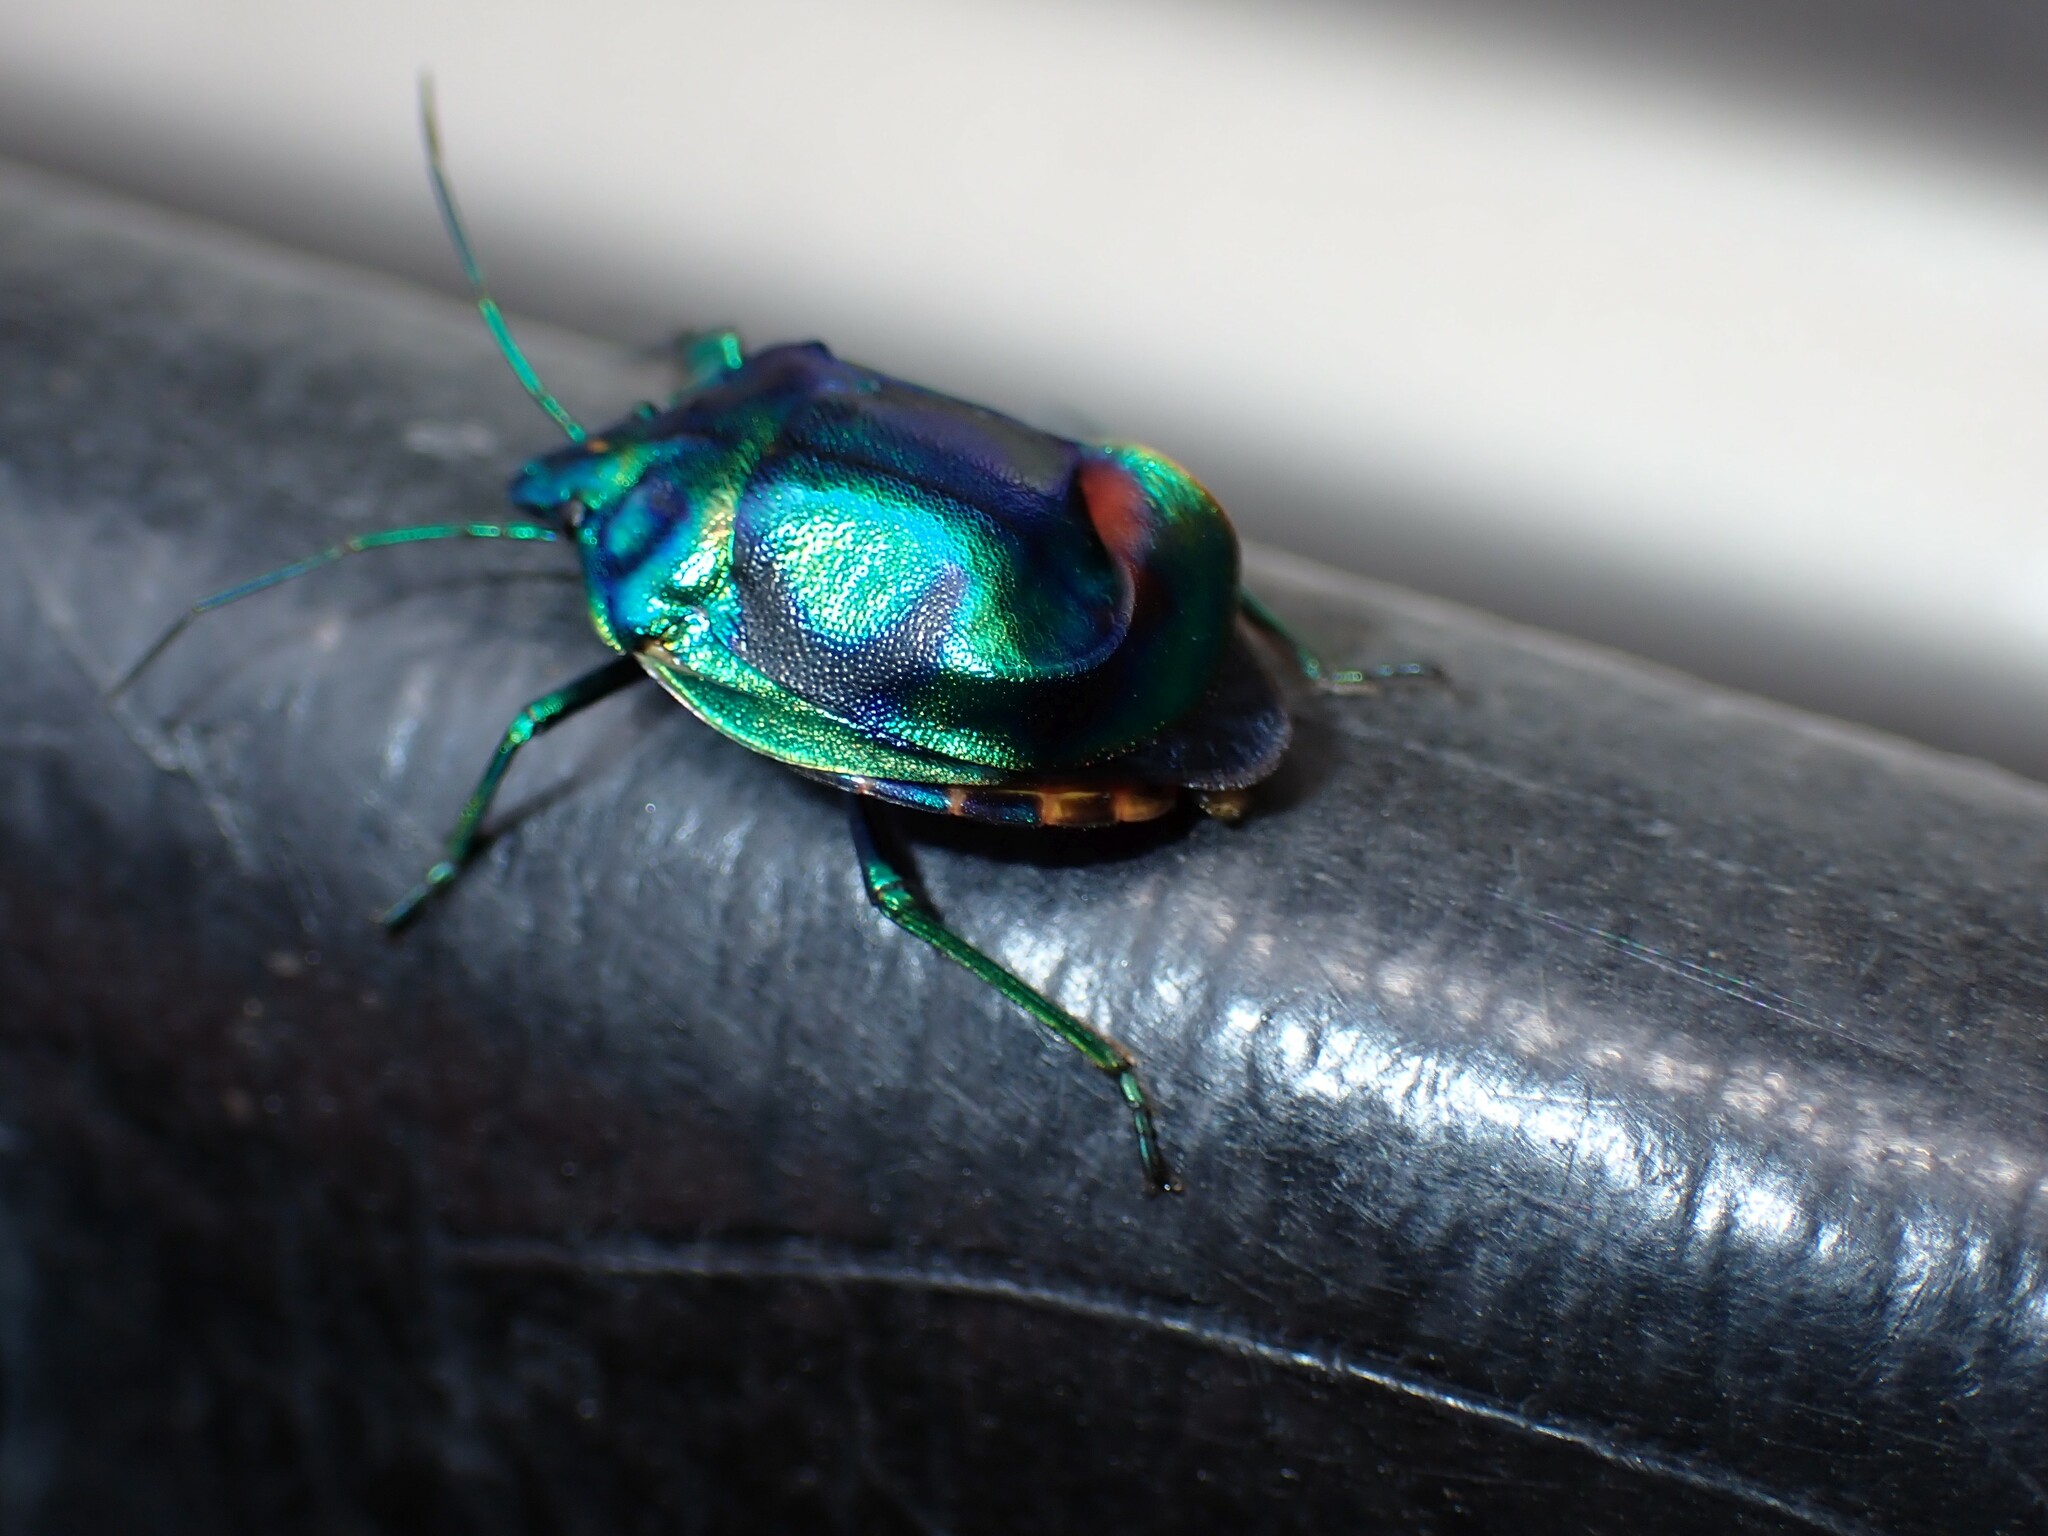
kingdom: Animalia
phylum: Arthropoda
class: Insecta
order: Hemiptera
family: Scutelleridae
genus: Tectocoris
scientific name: Tectocoris diophthalmus
